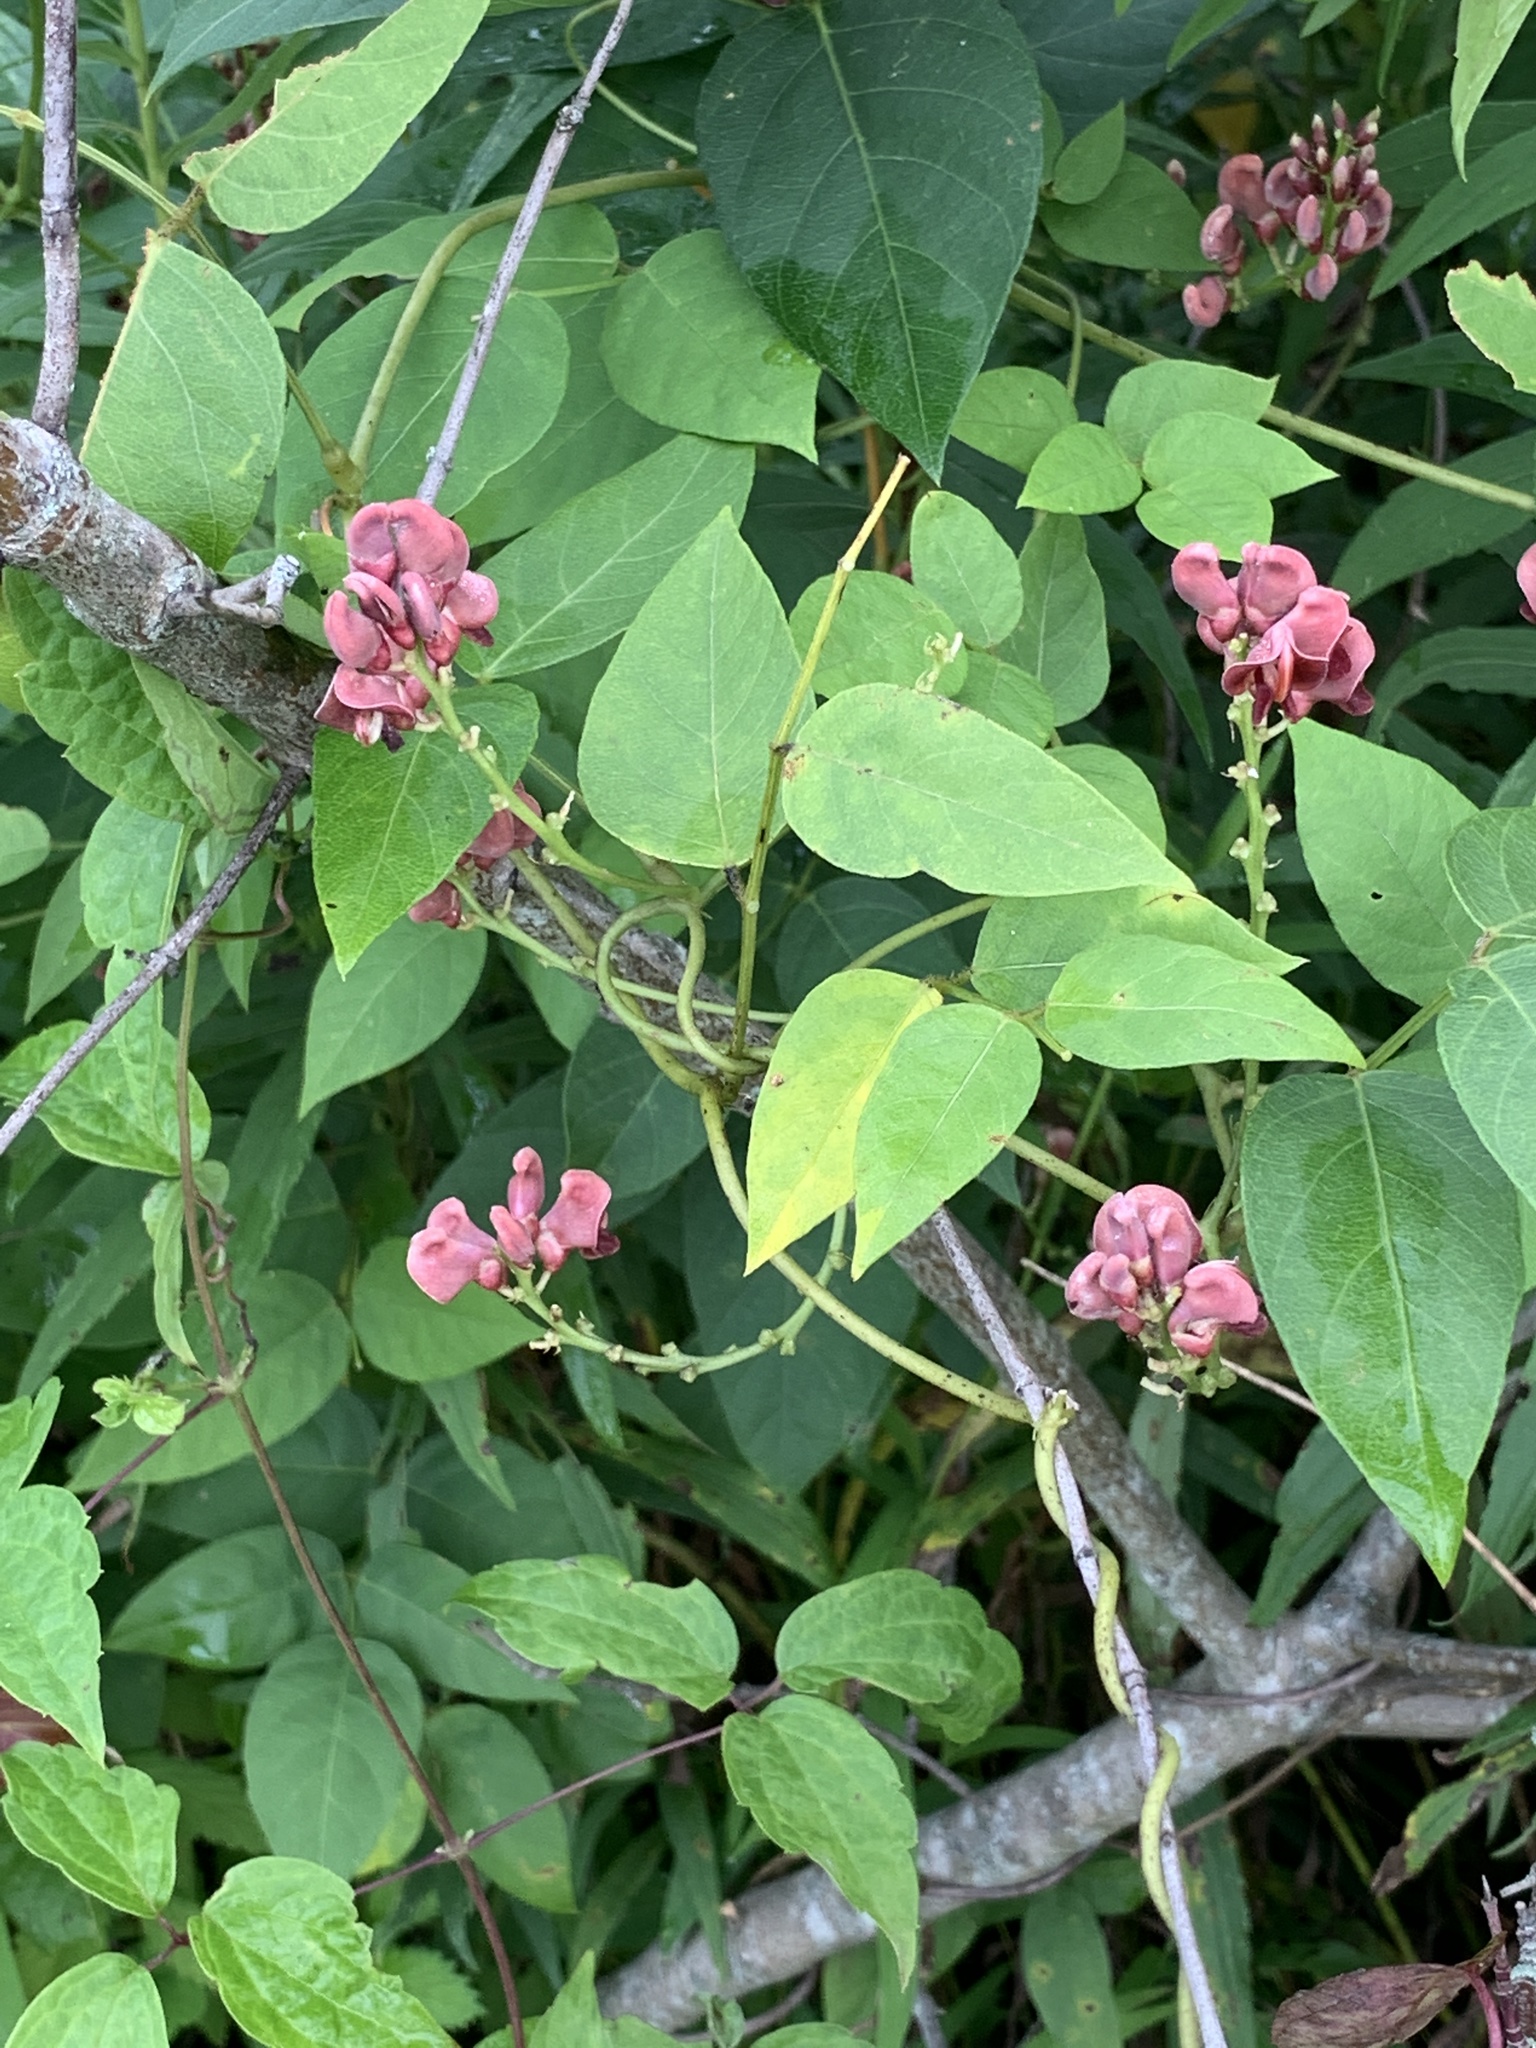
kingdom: Plantae
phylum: Tracheophyta
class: Magnoliopsida
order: Fabales
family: Fabaceae
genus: Apios
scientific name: Apios americana
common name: American potato-bean
